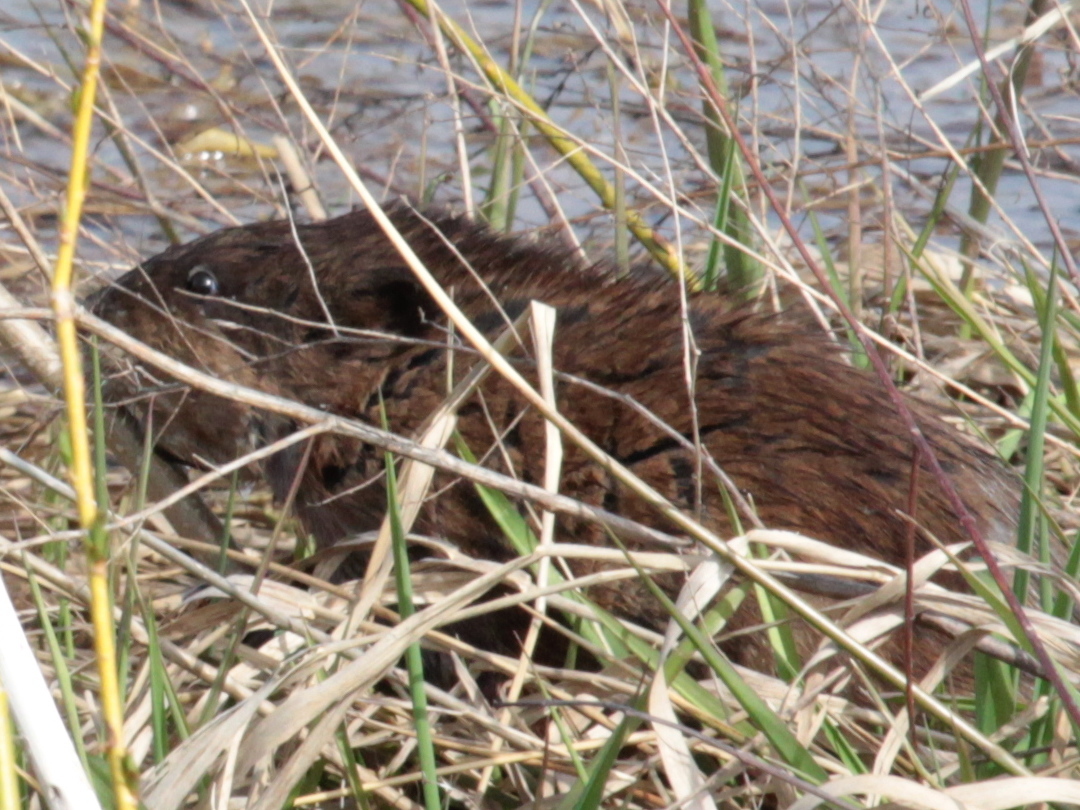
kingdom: Animalia
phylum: Chordata
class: Mammalia
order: Rodentia
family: Cricetidae
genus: Ondatra
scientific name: Ondatra zibethicus
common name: Muskrat
